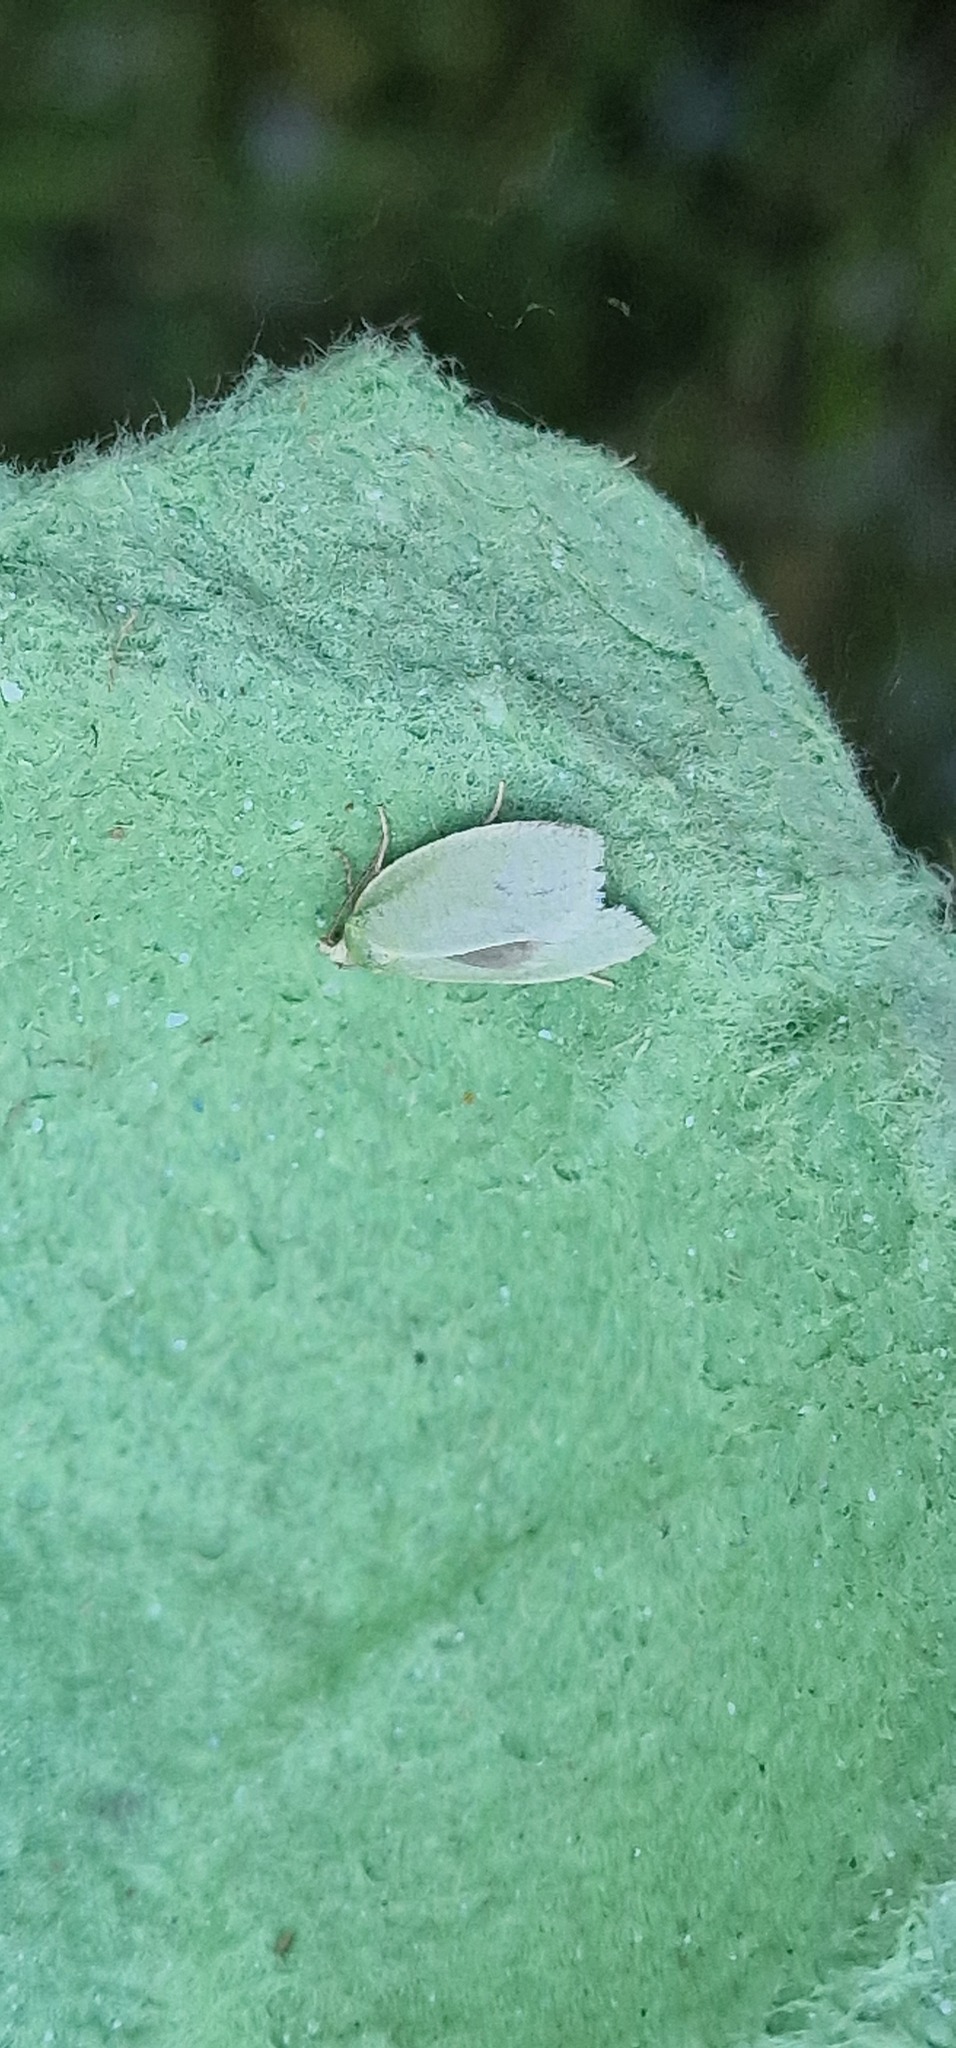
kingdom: Animalia
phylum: Arthropoda
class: Insecta
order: Lepidoptera
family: Tortricidae
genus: Tortrix
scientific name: Tortrix viridana
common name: Green oak tortrix
